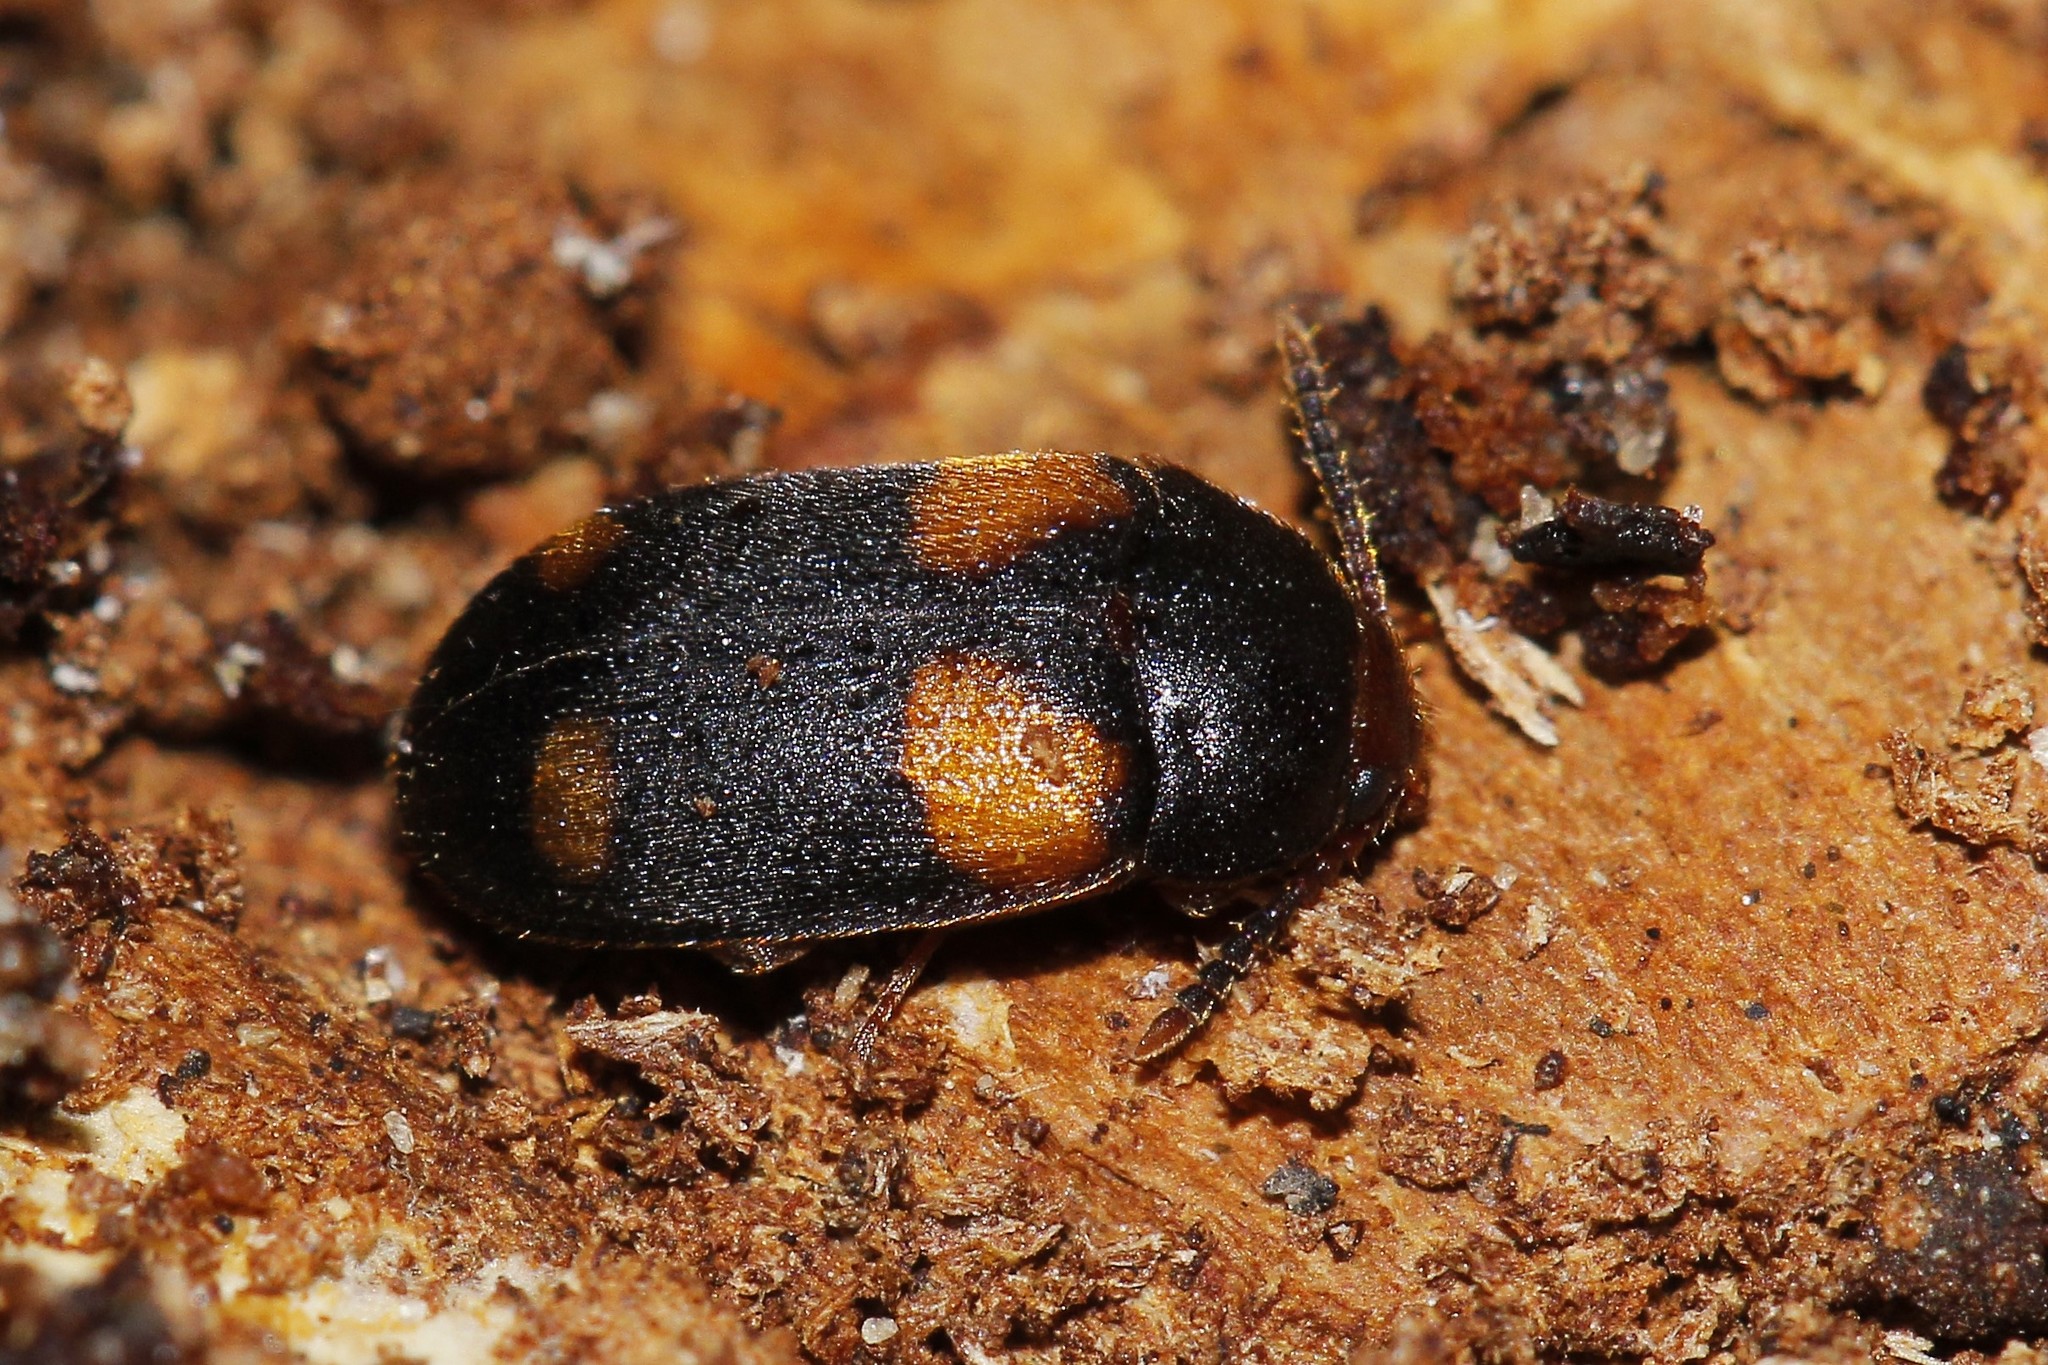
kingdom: Animalia
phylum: Arthropoda
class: Insecta
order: Coleoptera
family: Mycetophagidae
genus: Mycetophagus
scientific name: Mycetophagus quadripustulatus
